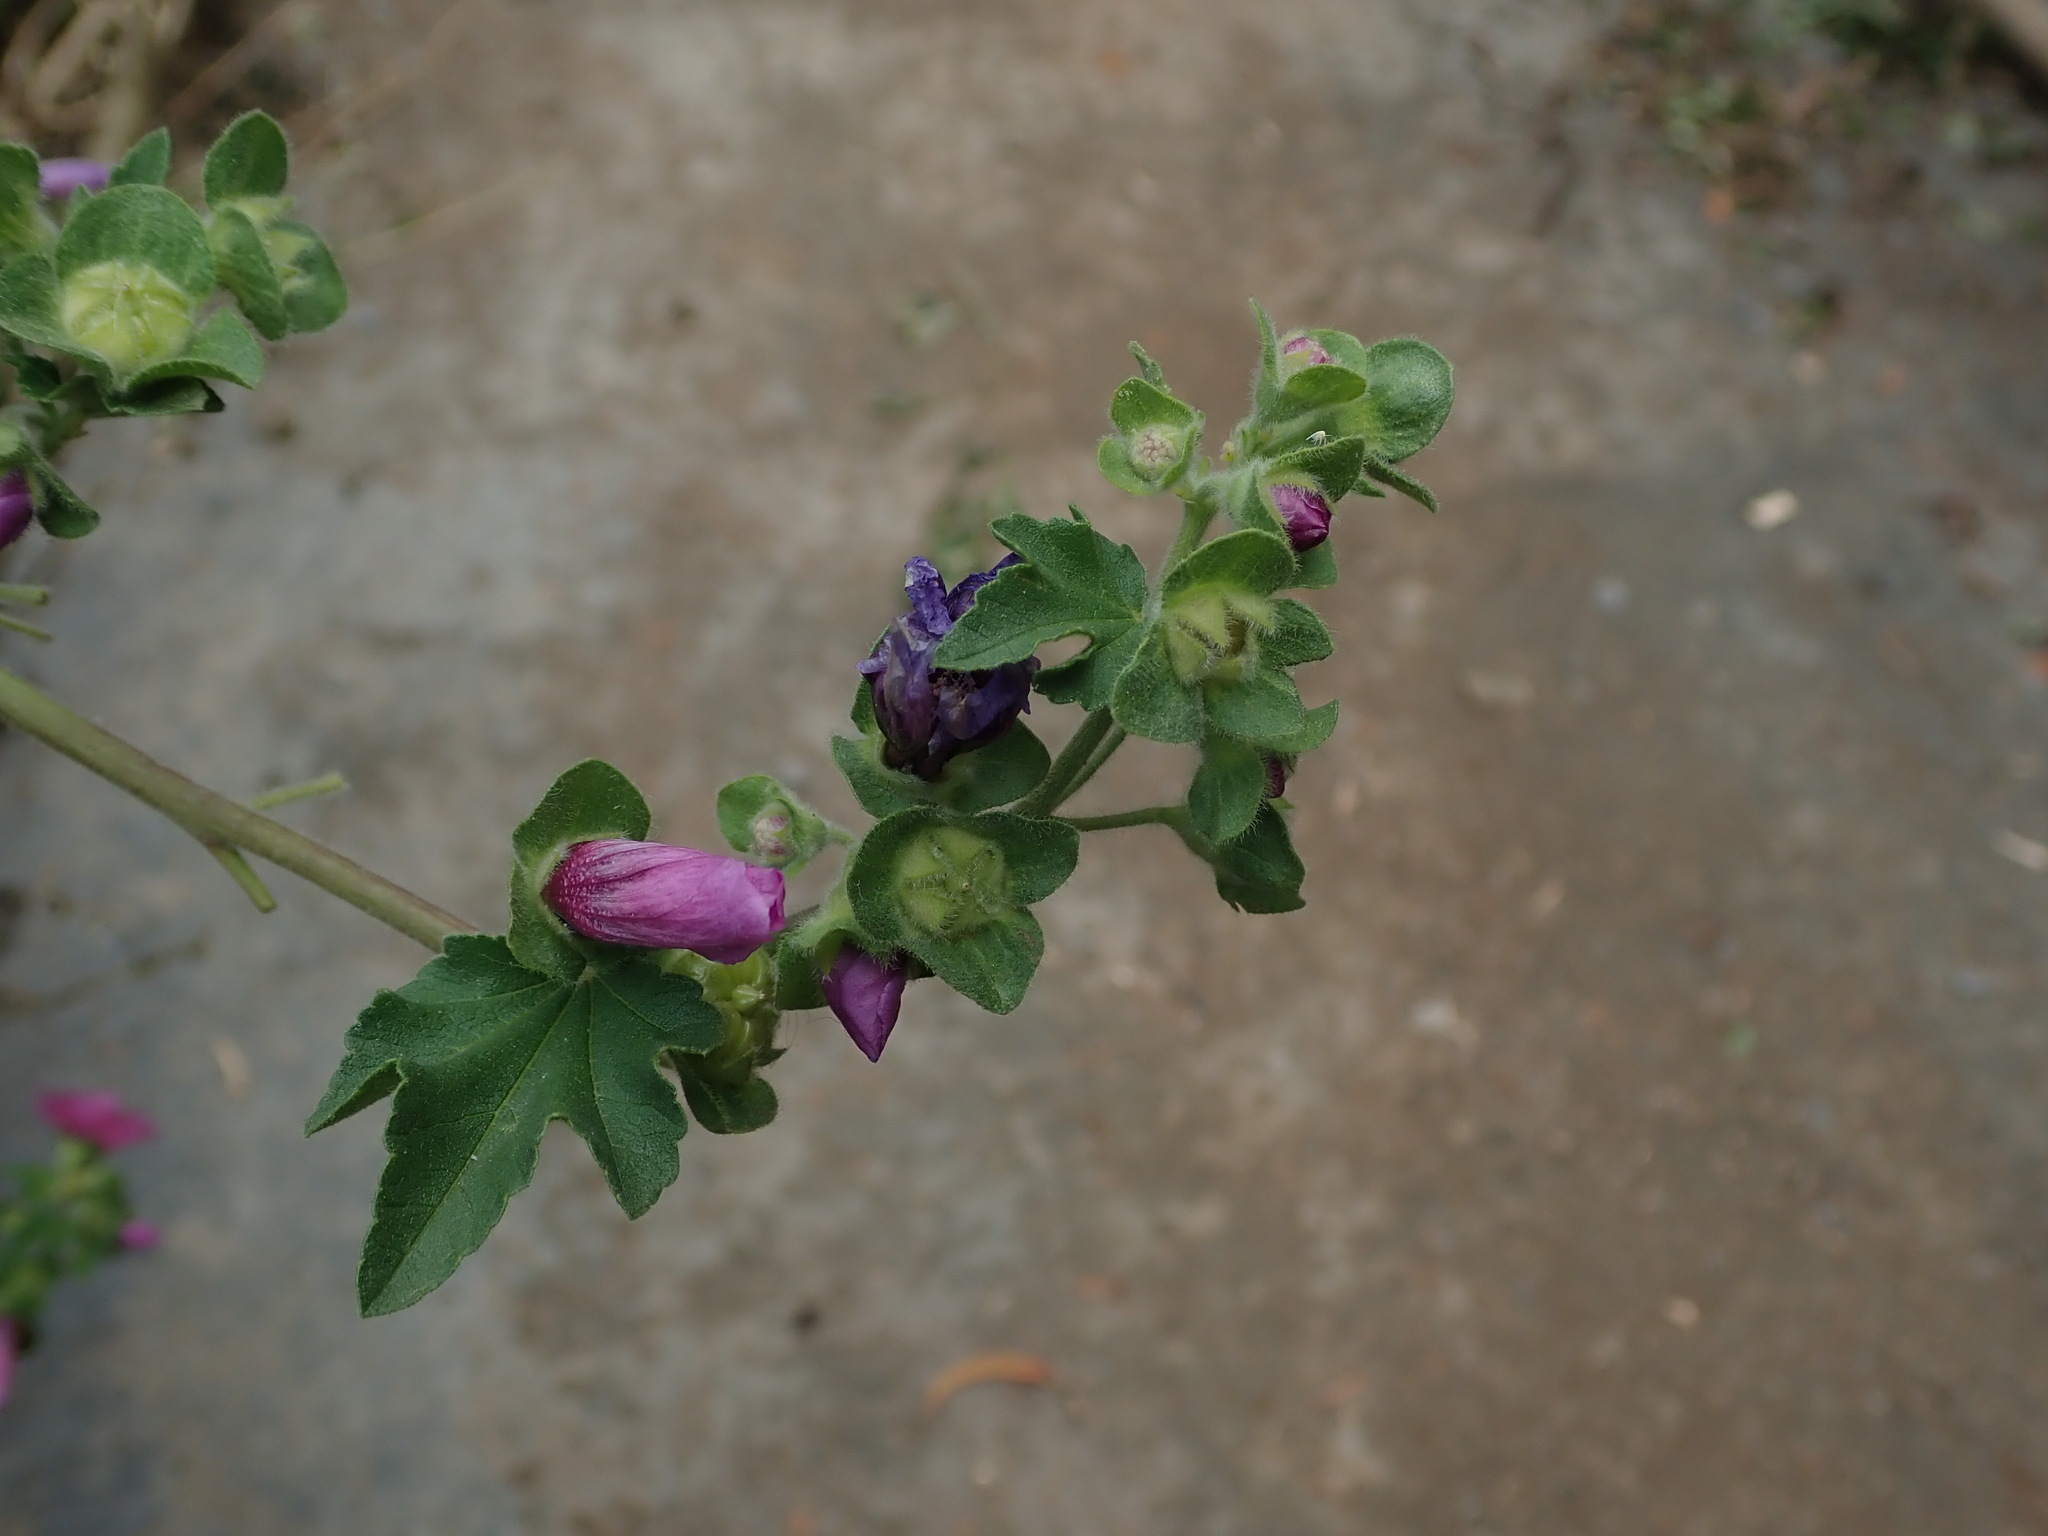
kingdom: Plantae
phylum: Tracheophyta
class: Magnoliopsida
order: Malvales
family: Malvaceae
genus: Alcea
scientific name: Alcea rosea
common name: Hollyhock
